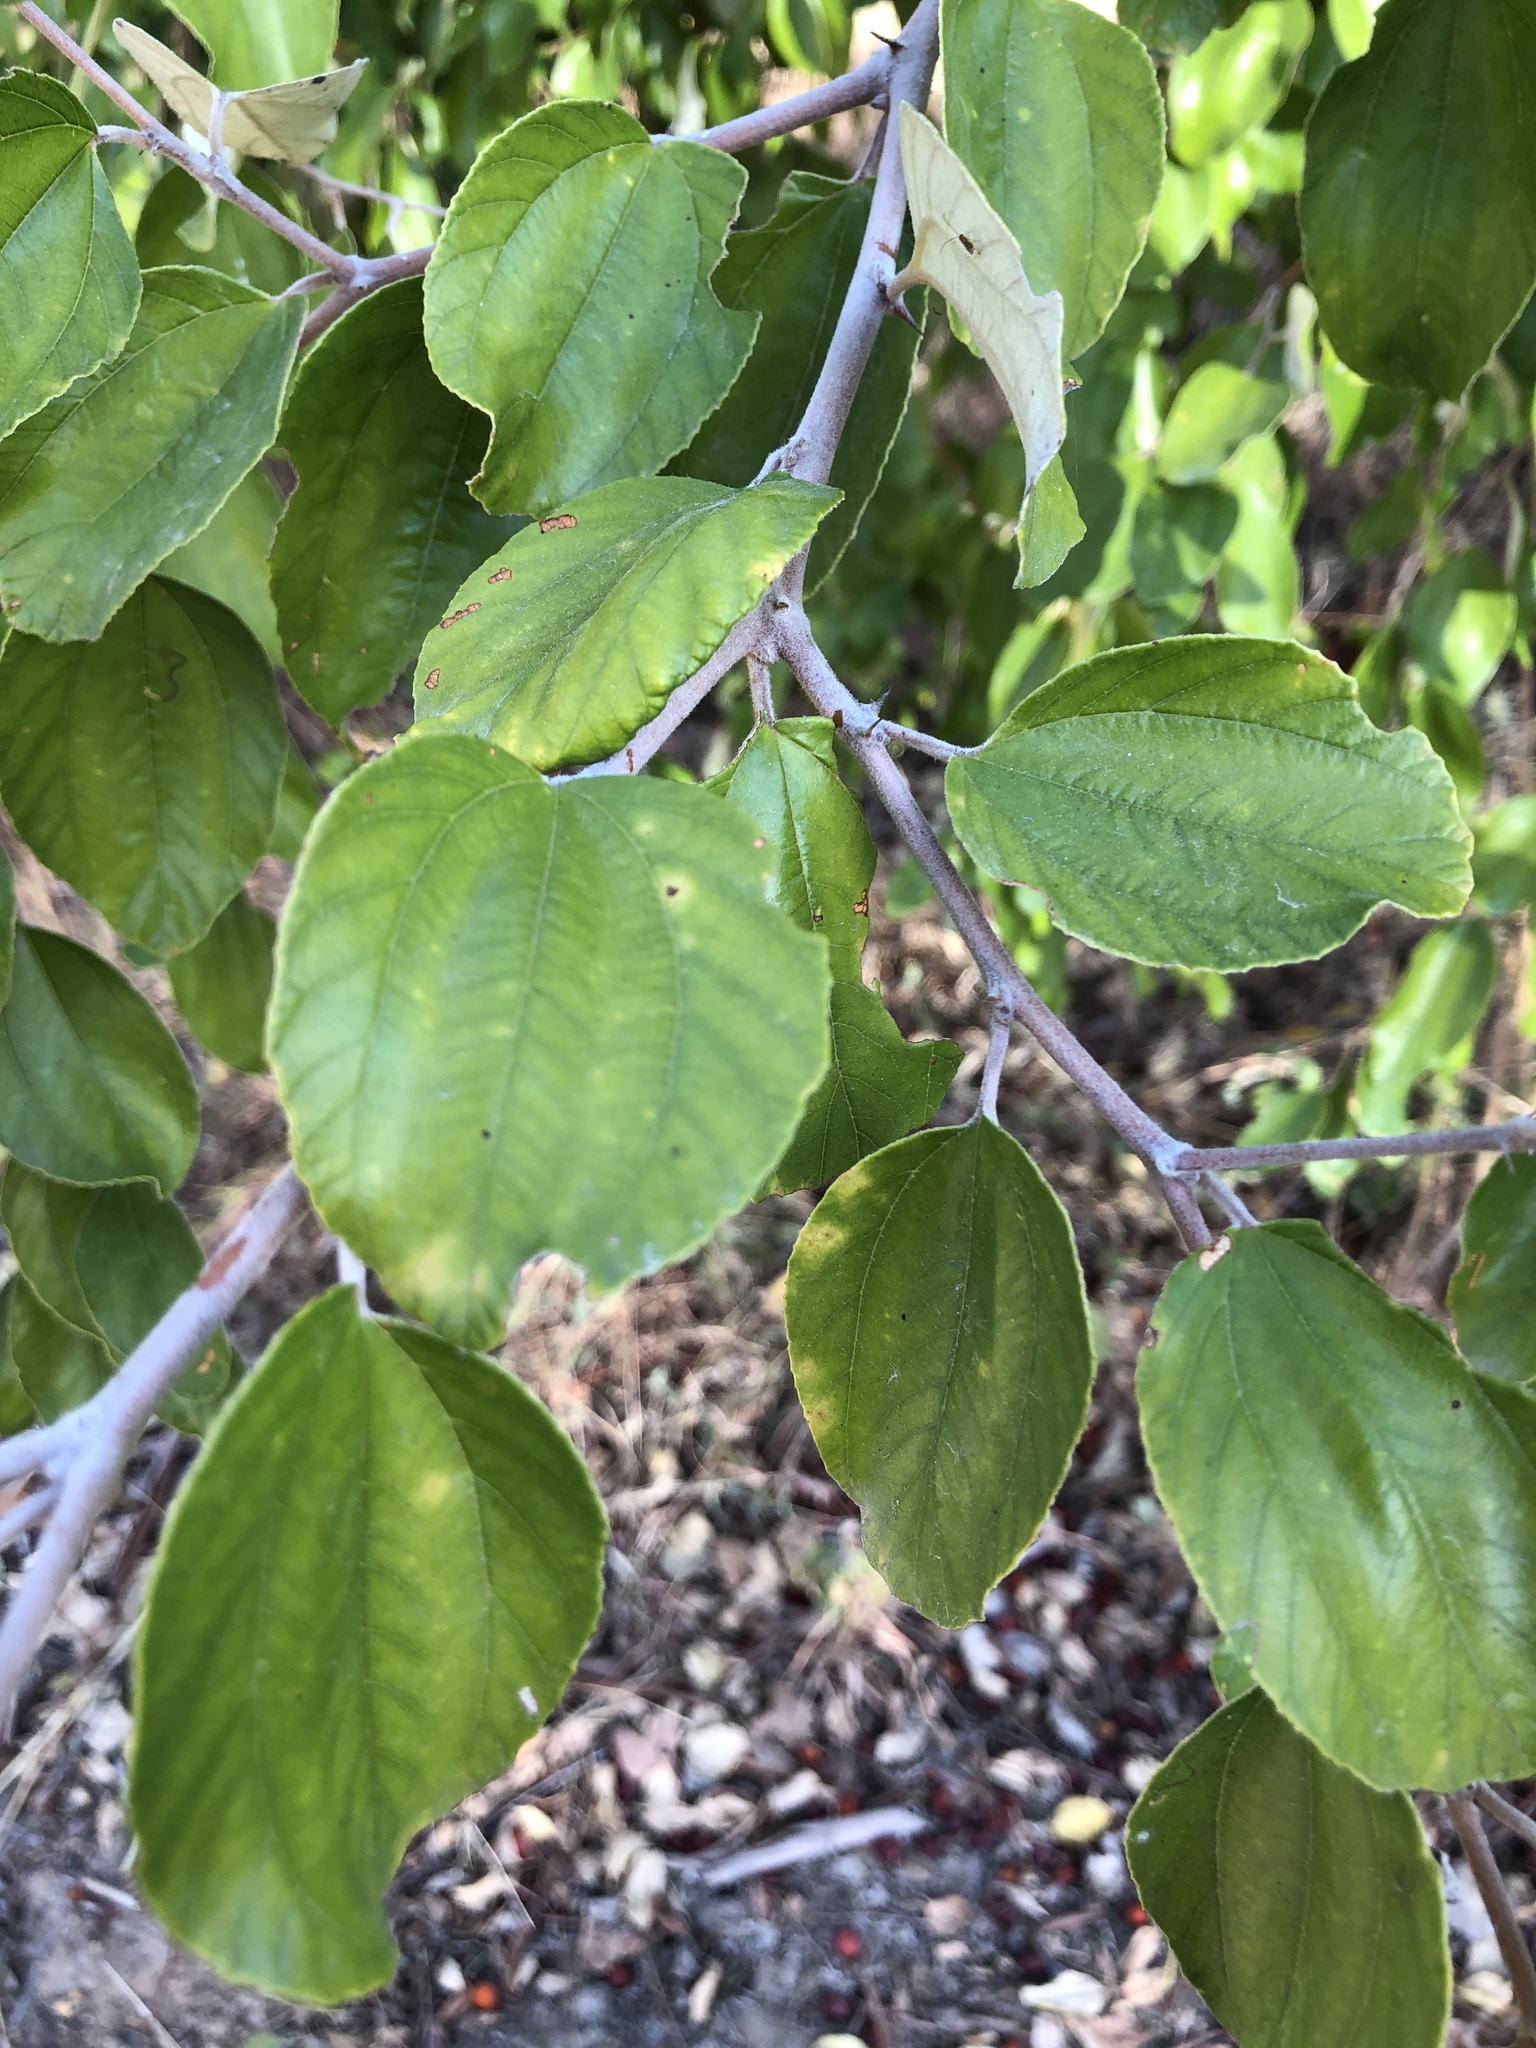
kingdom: Plantae
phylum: Tracheophyta
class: Magnoliopsida
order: Rosales
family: Rhamnaceae
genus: Ziziphus
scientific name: Ziziphus mauritiana
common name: Indian jujube
